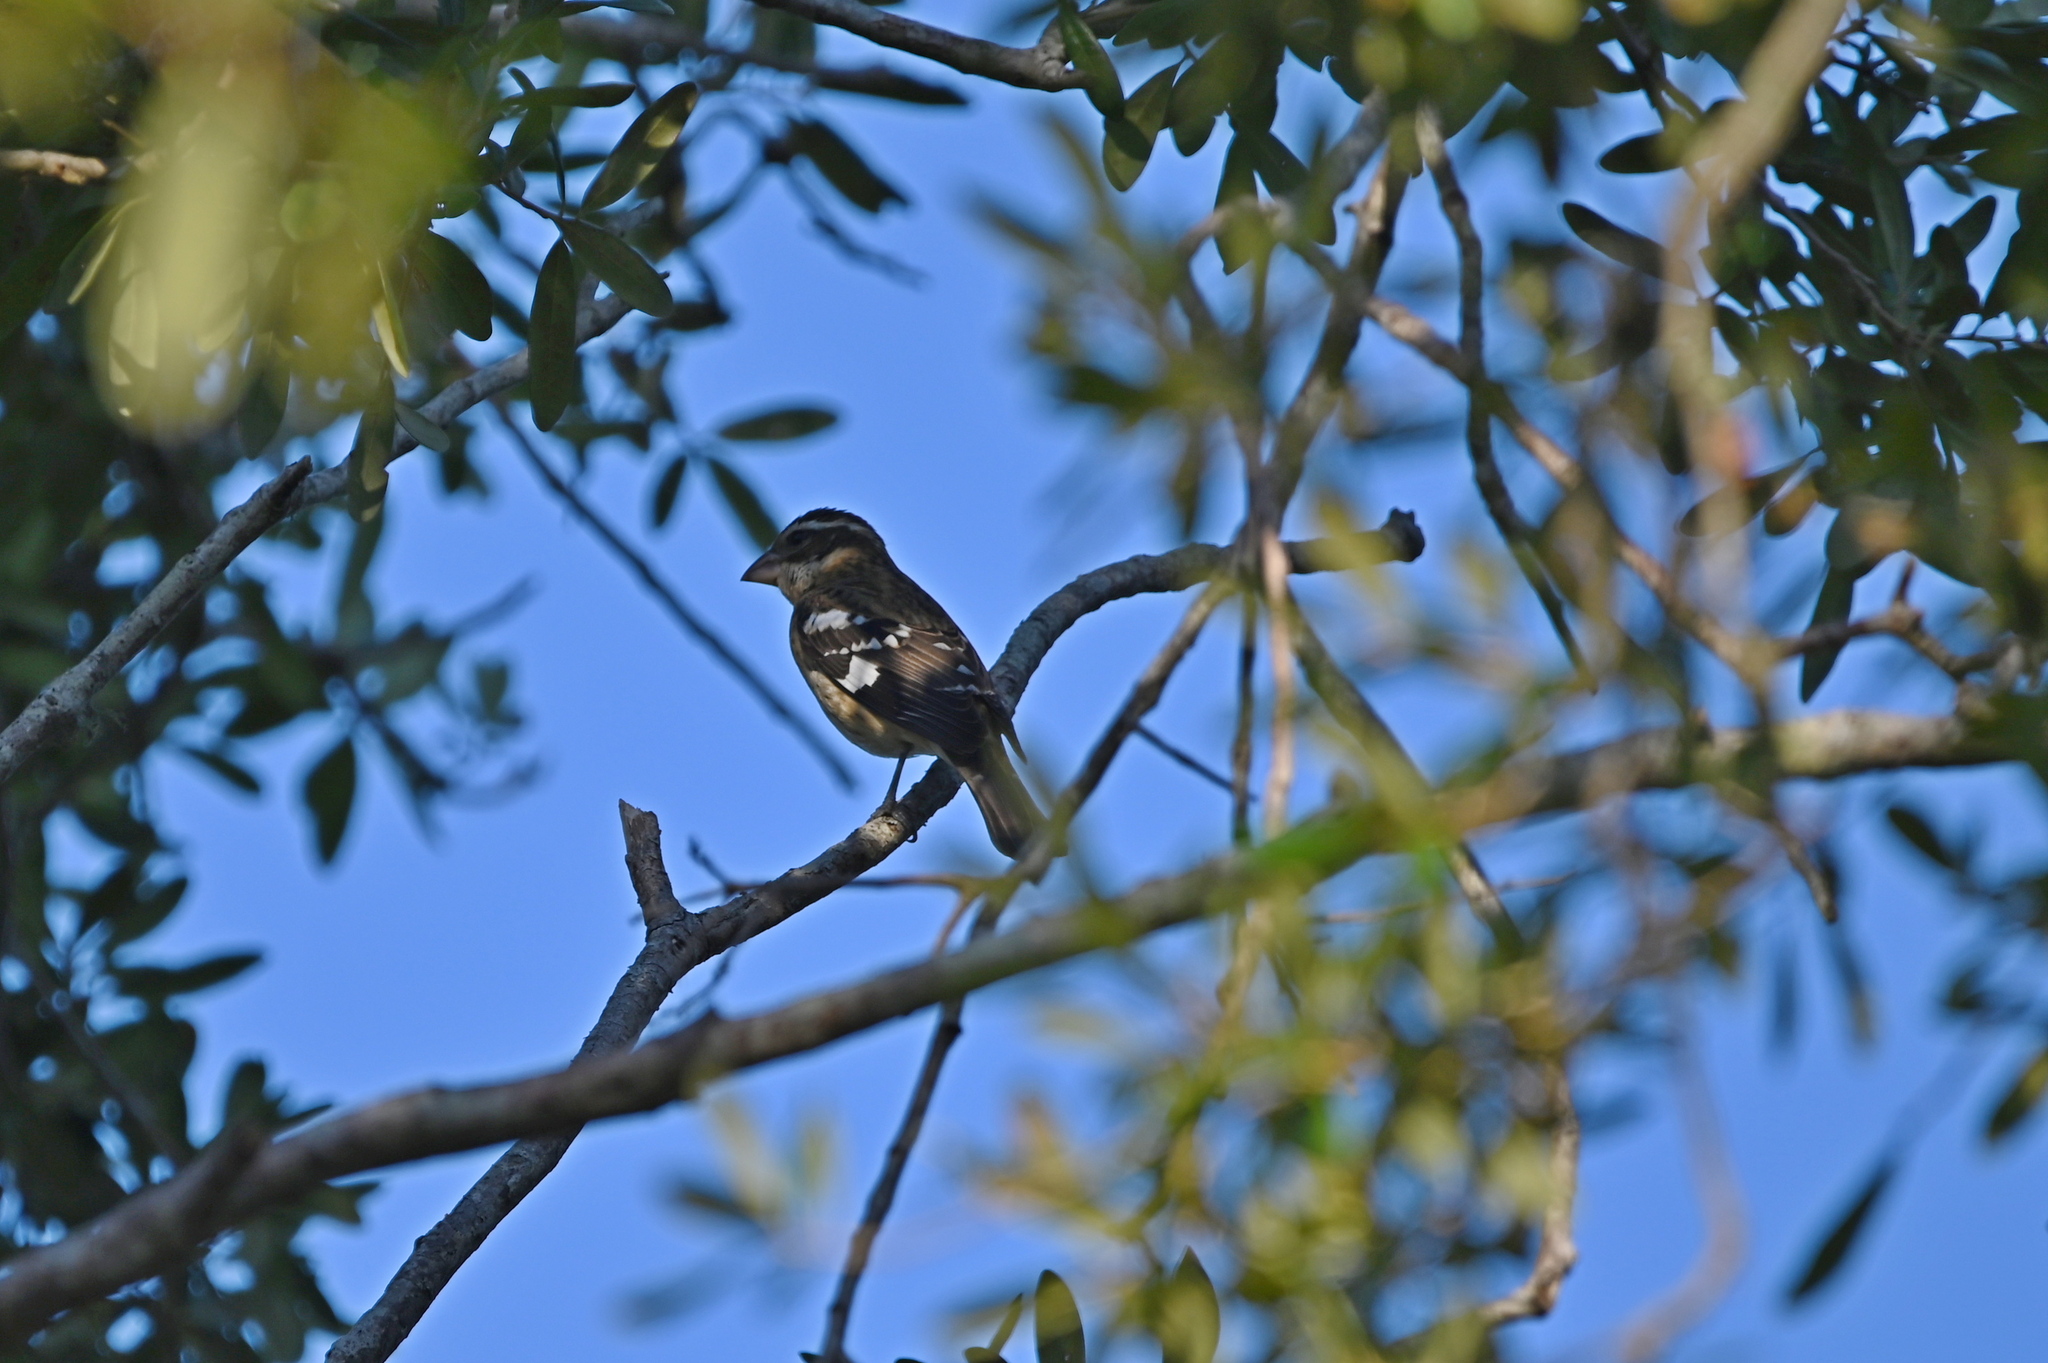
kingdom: Animalia
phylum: Chordata
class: Aves
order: Passeriformes
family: Cardinalidae
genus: Pheucticus
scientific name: Pheucticus ludovicianus
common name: Rose-breasted grosbeak
